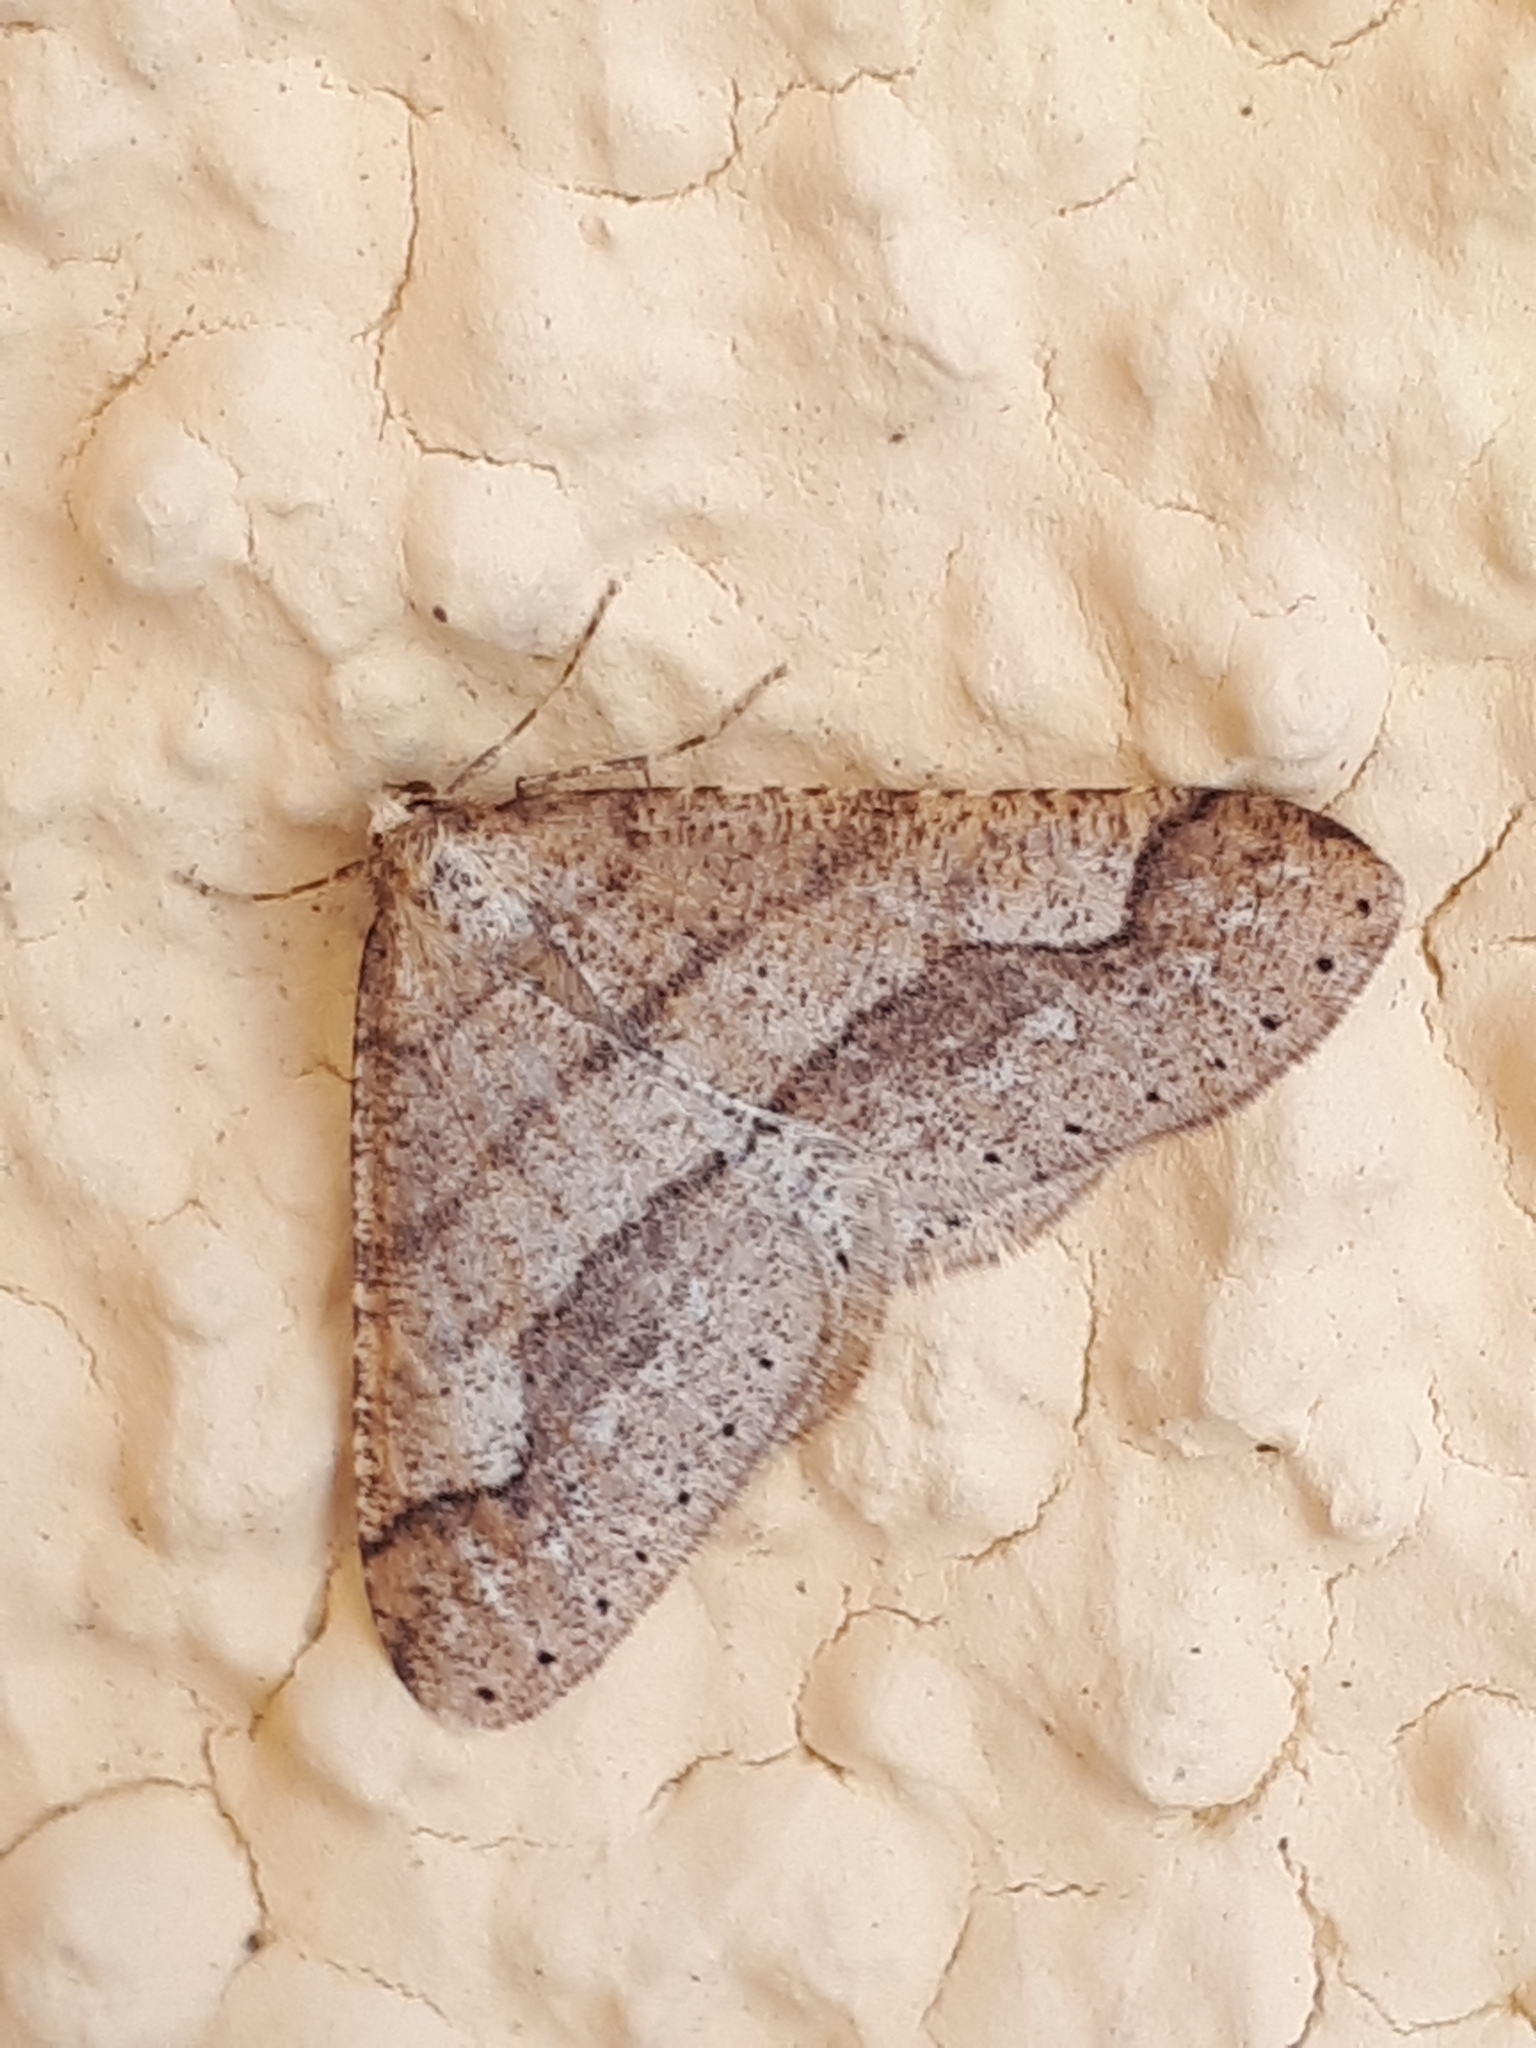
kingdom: Animalia
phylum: Arthropoda
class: Insecta
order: Lepidoptera
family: Geometridae
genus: Agriopis
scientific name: Agriopis marginaria
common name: Dotted border
